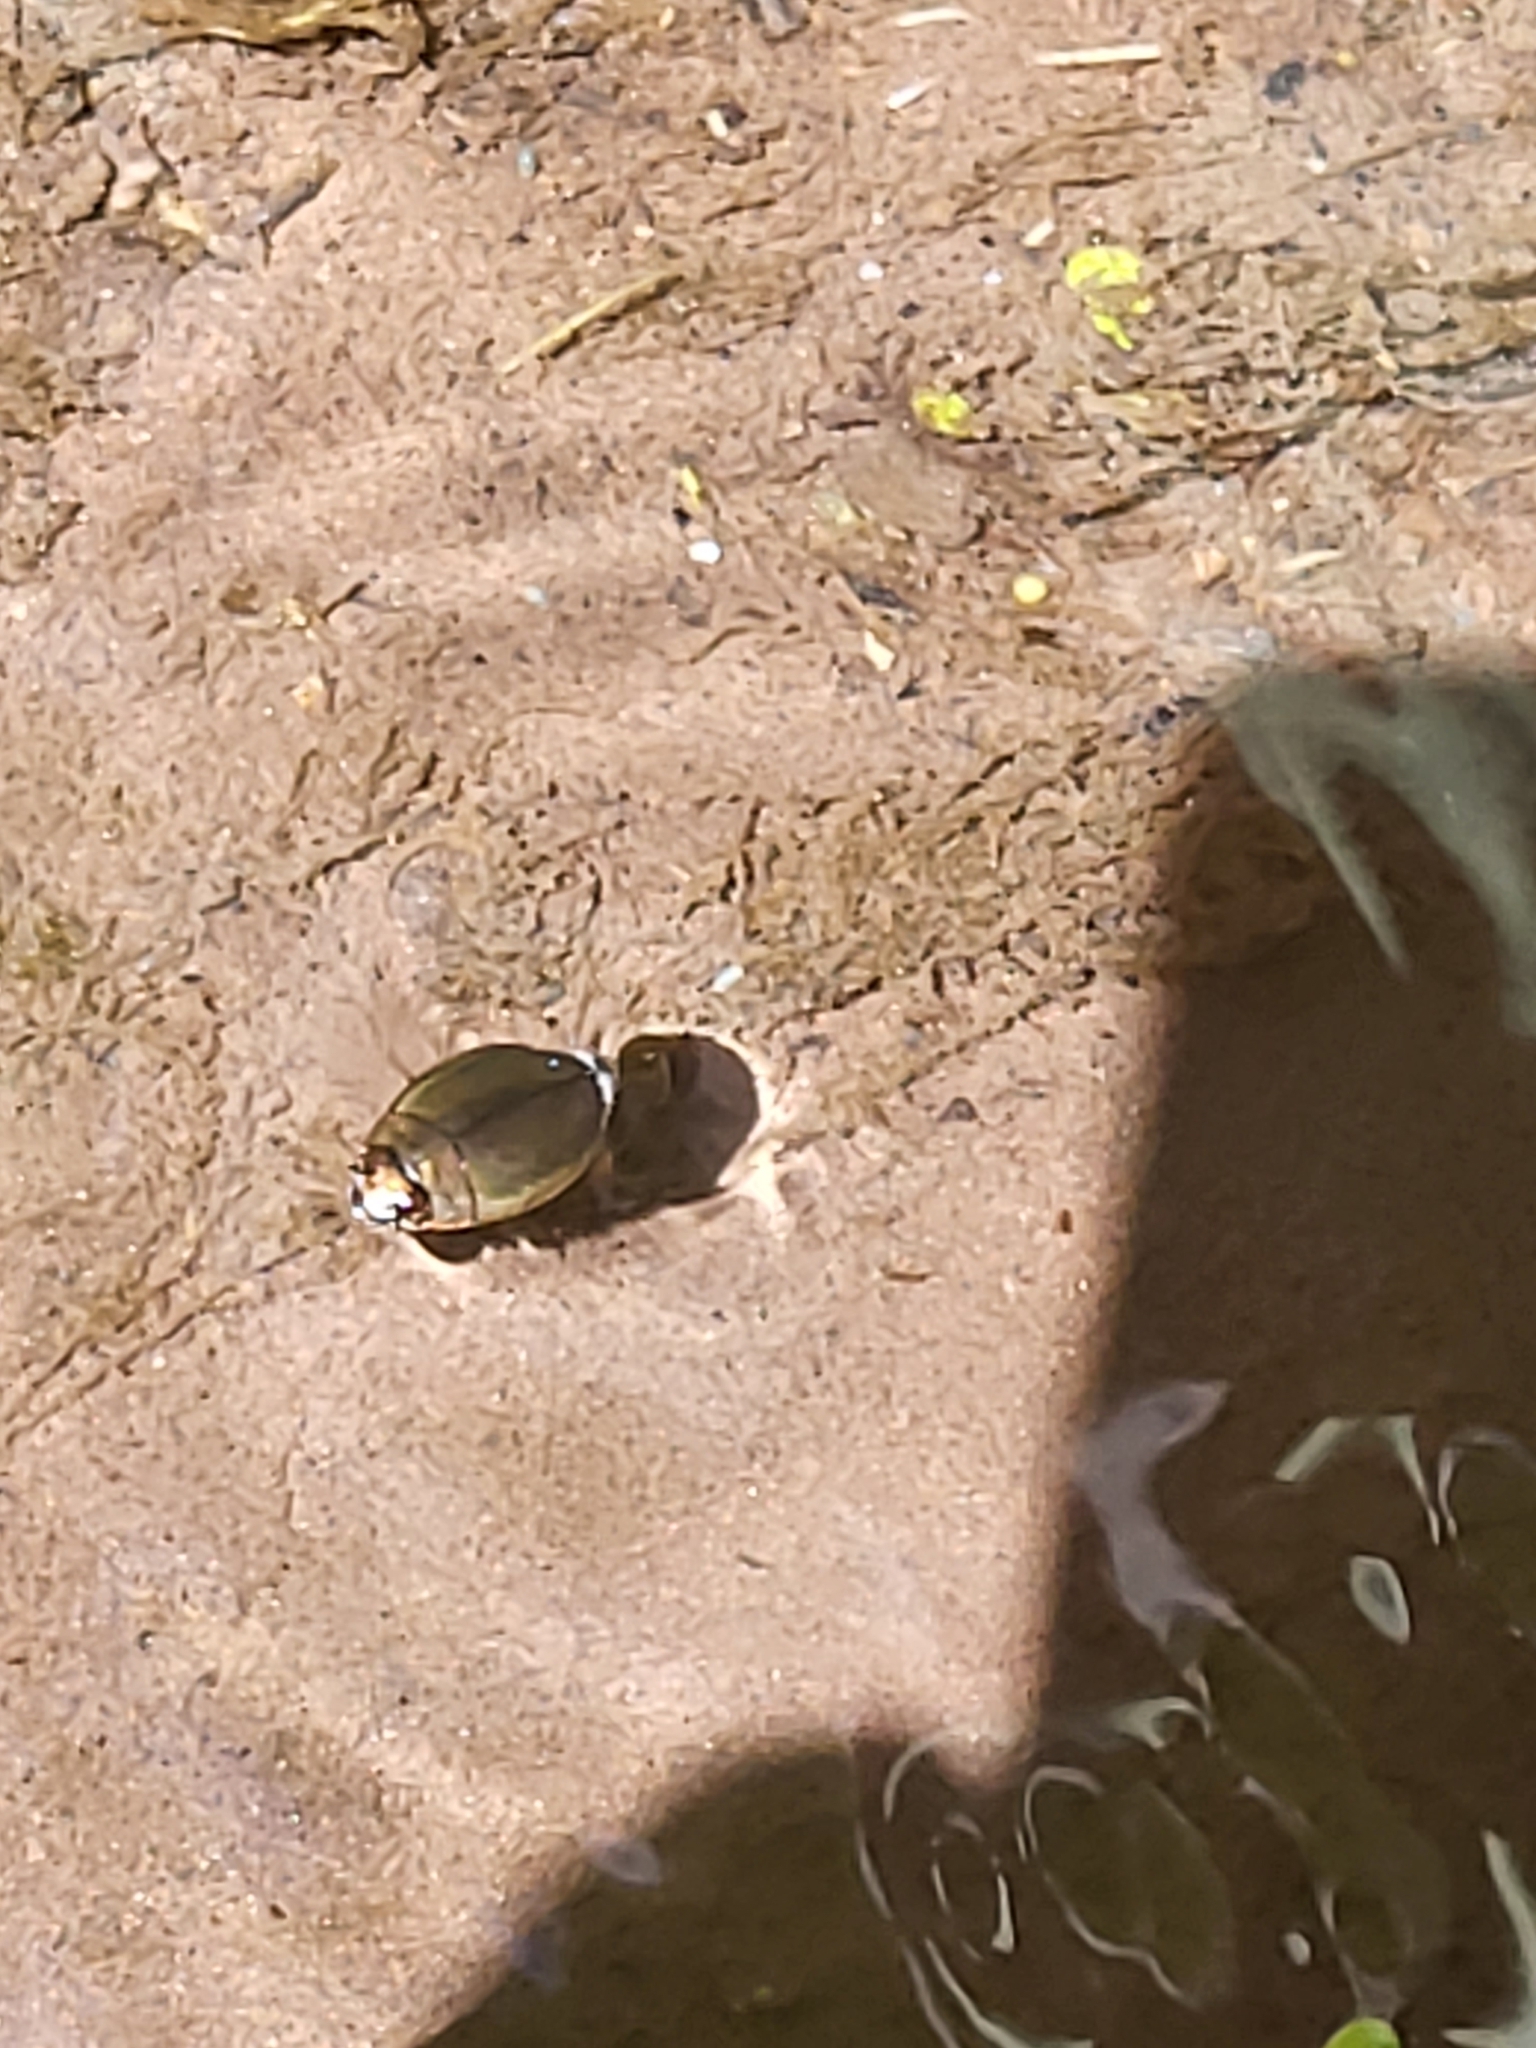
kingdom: Animalia
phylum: Arthropoda
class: Insecta
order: Coleoptera
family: Gyrinidae
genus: Dineutus
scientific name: Dineutus
